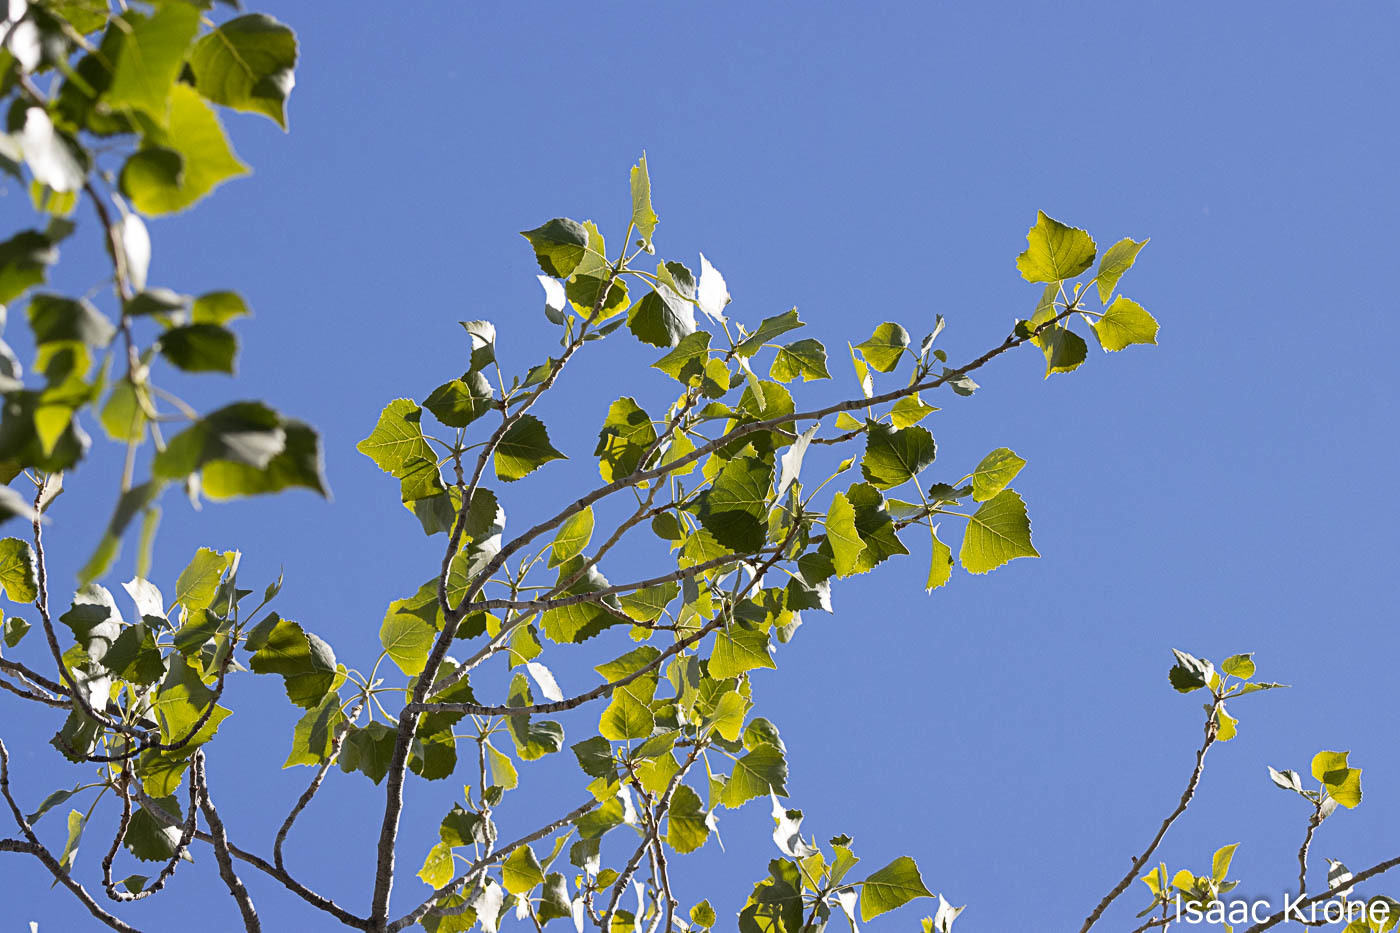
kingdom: Plantae
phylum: Tracheophyta
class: Magnoliopsida
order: Malpighiales
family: Salicaceae
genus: Populus
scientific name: Populus fremontii
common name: Fremont's cottonwood
